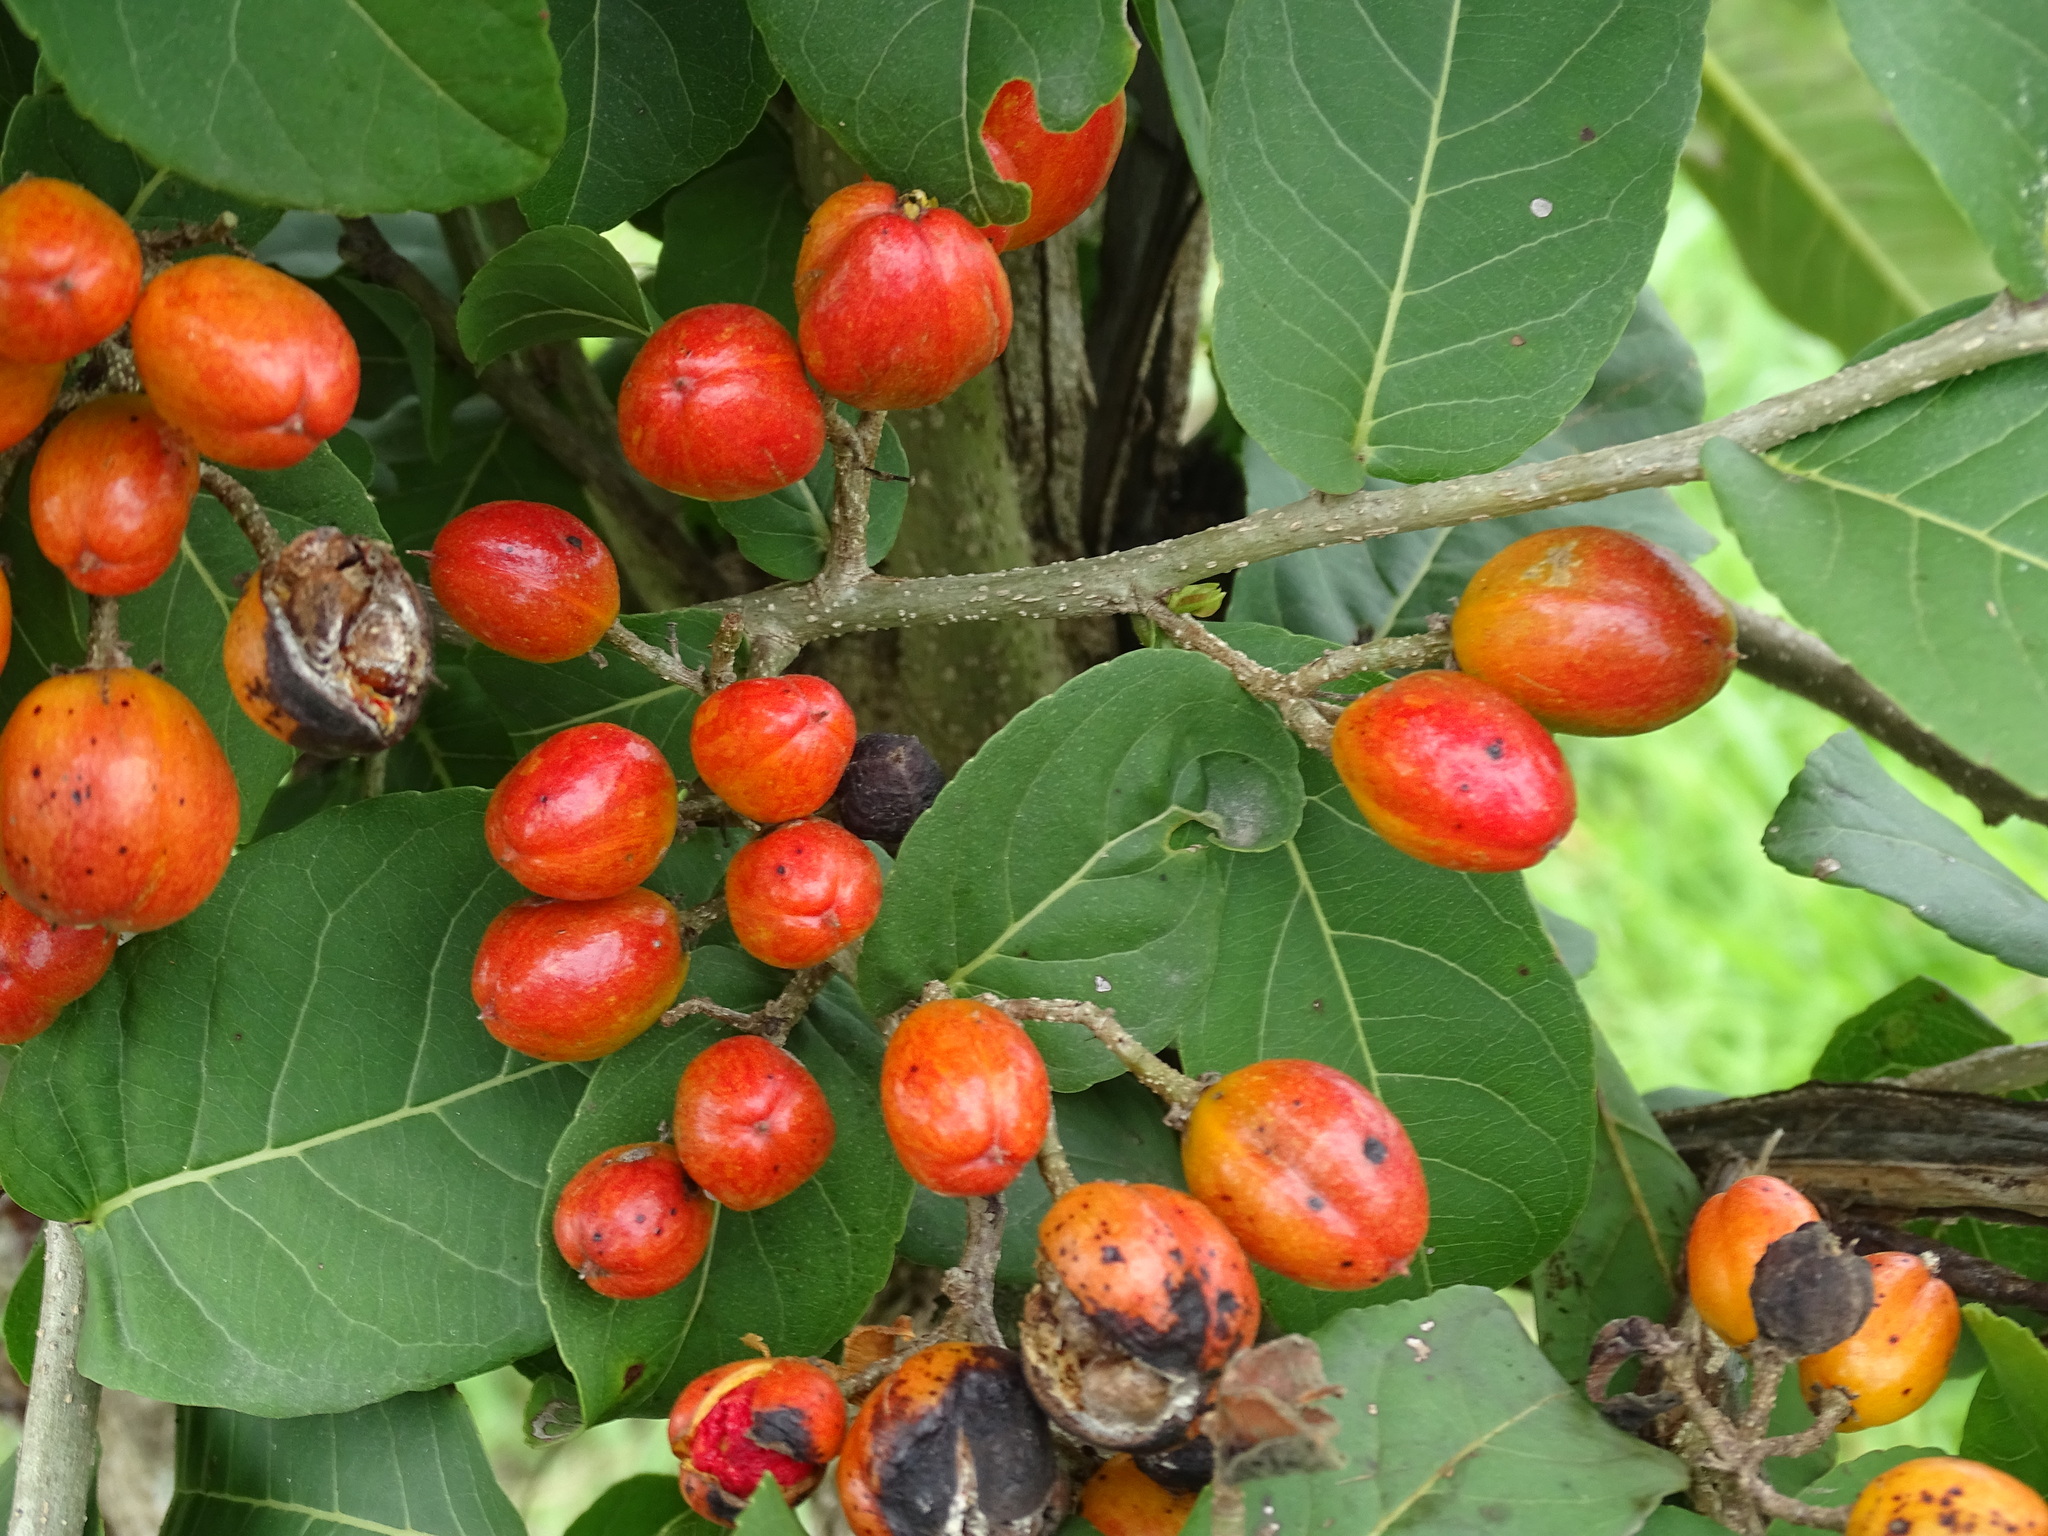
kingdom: Plantae
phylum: Tracheophyta
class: Magnoliopsida
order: Malpighiales
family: Salicaceae
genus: Casearia
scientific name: Casearia corymbosa
